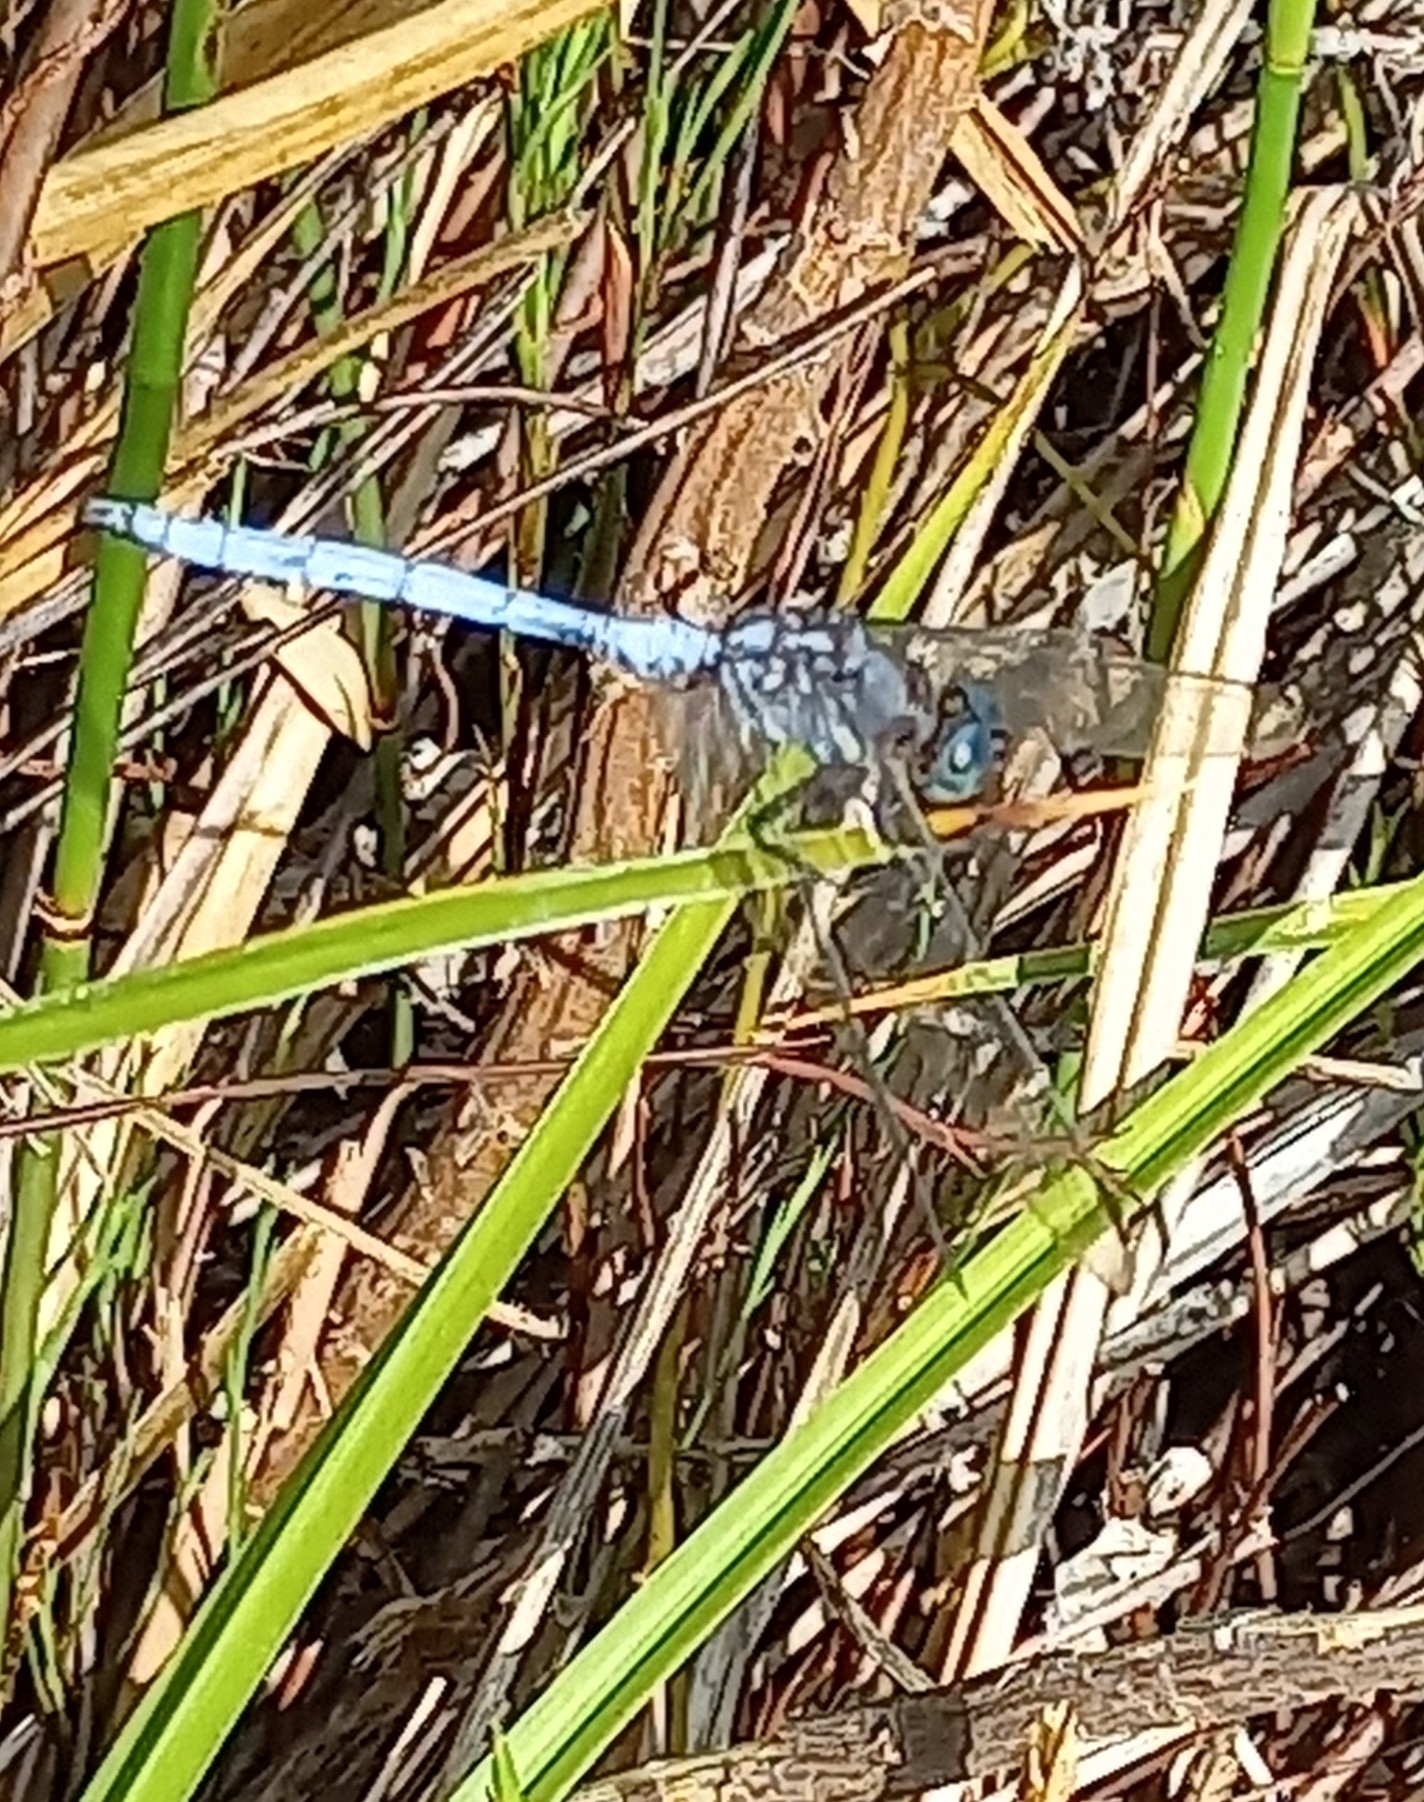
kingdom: Animalia
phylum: Arthropoda
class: Insecta
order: Odonata
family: Libellulidae
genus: Orthetrum
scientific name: Orthetrum julia
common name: Julia skimmer
